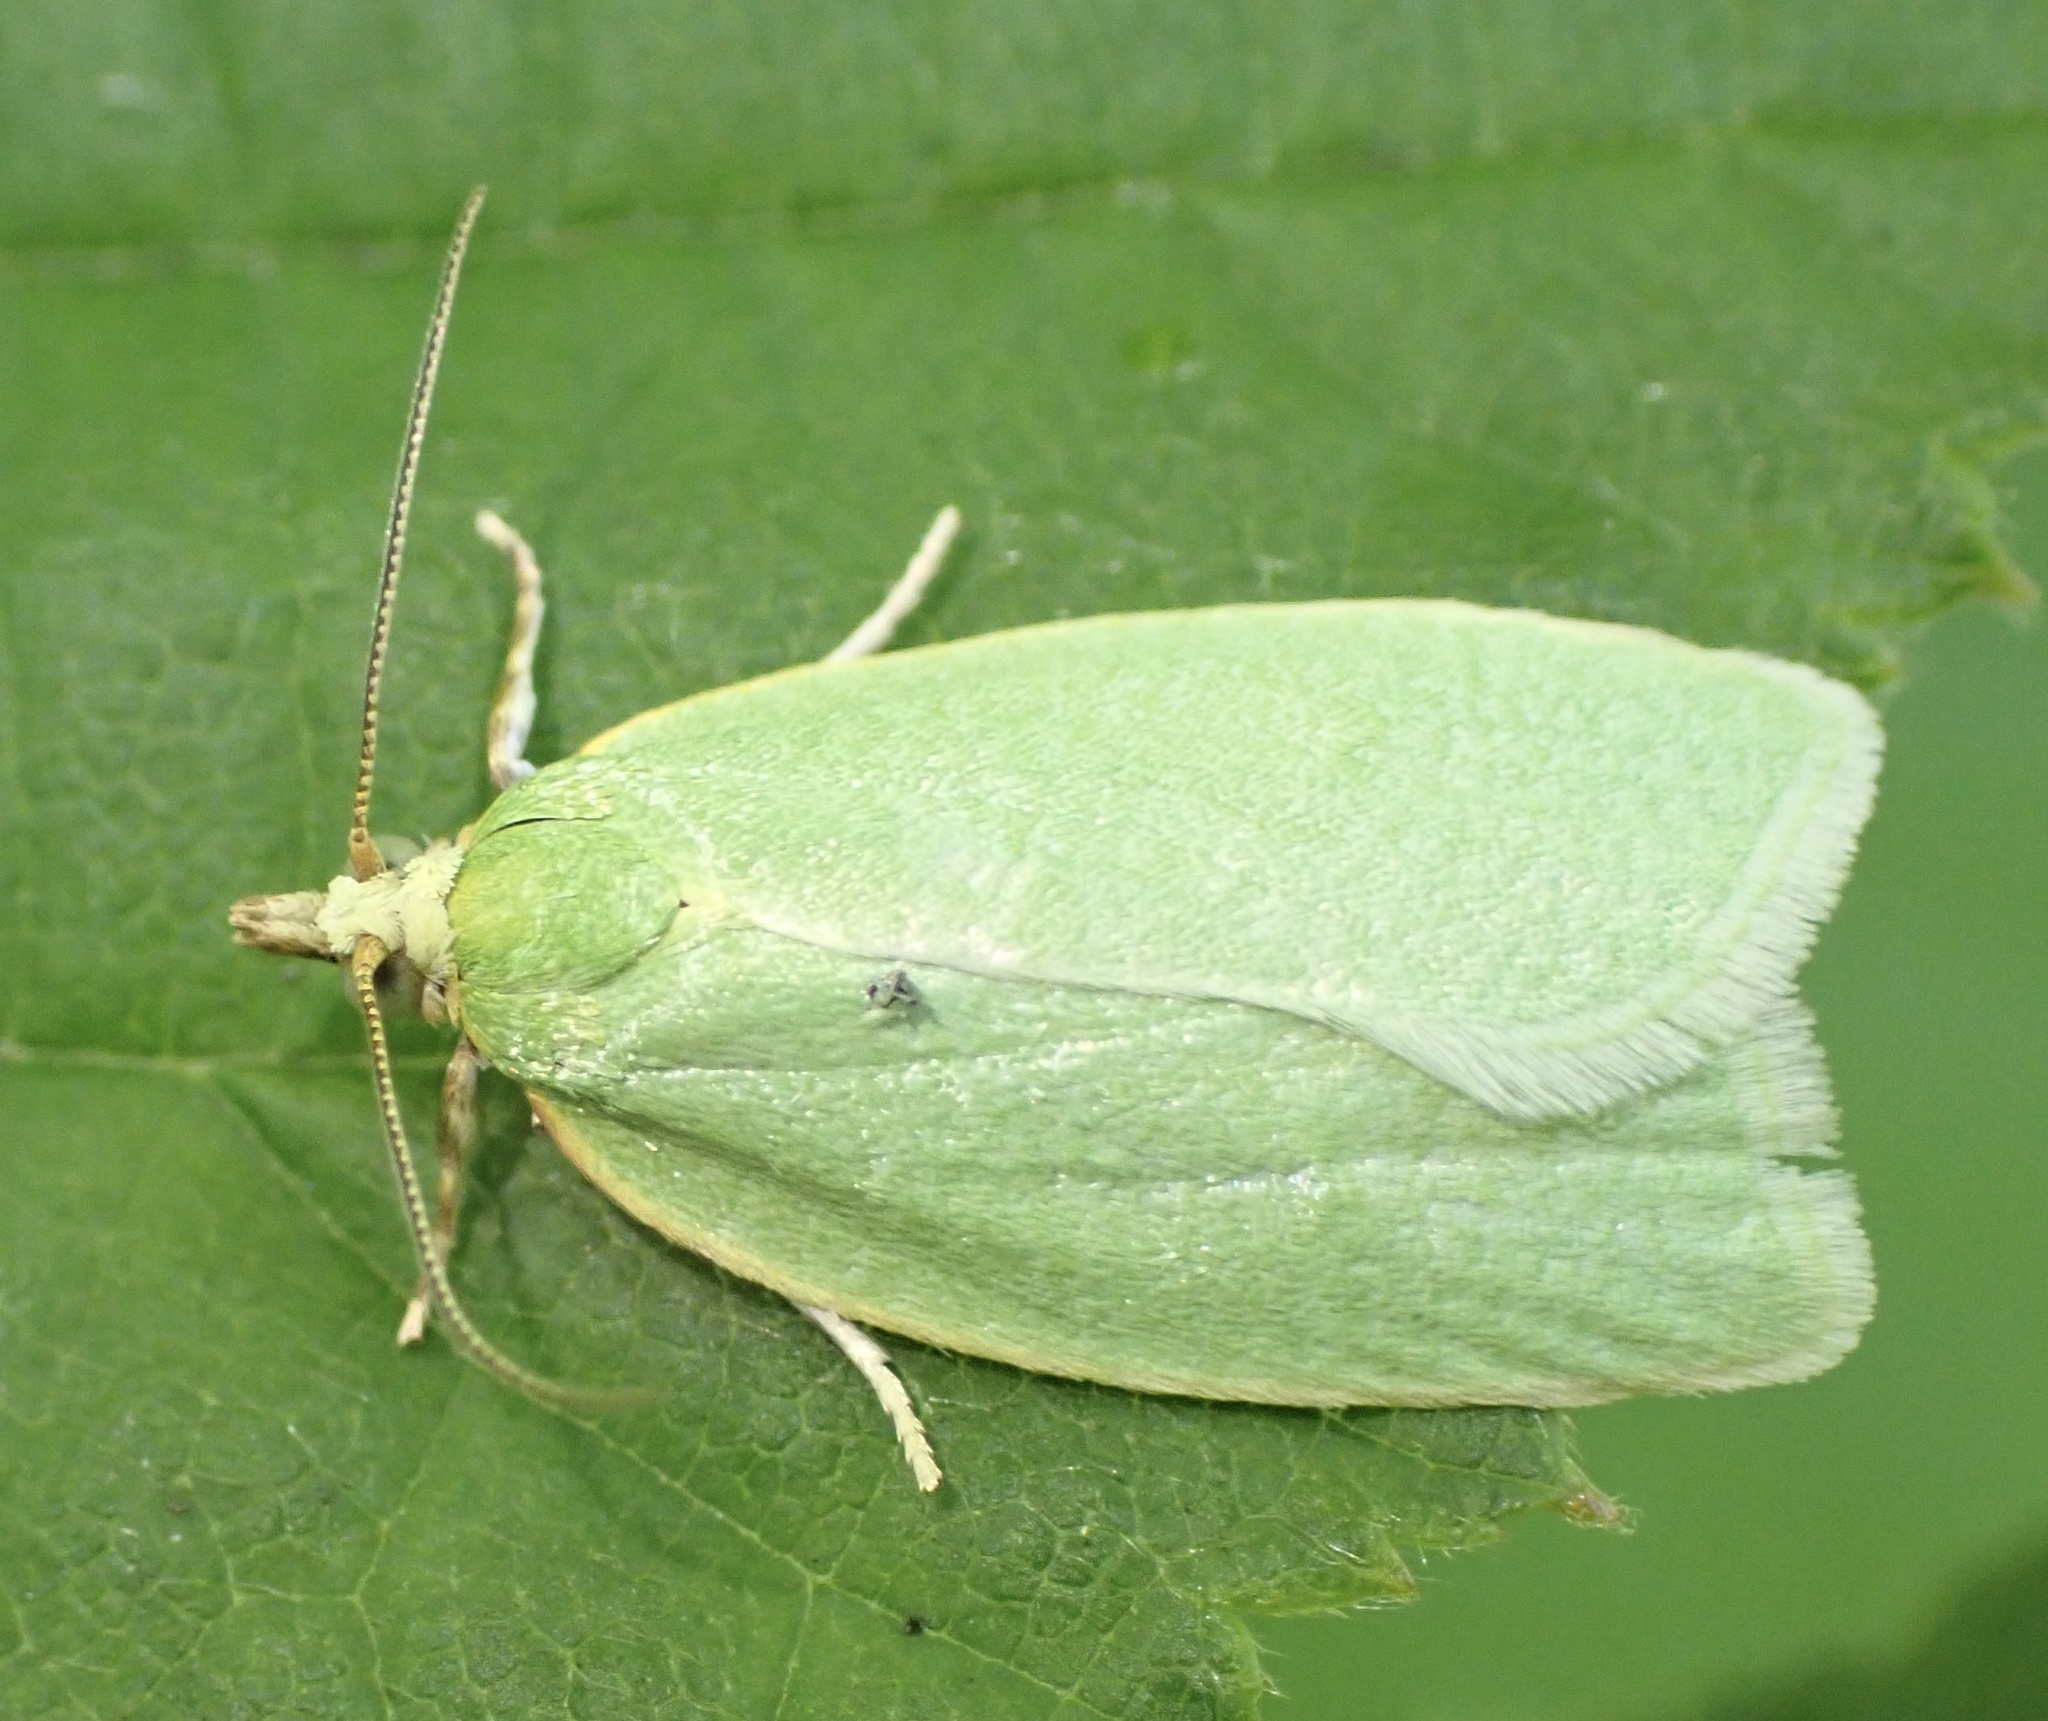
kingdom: Animalia
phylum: Arthropoda
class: Insecta
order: Lepidoptera
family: Tortricidae
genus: Tortrix
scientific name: Tortrix viridana
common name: Green oak tortrix
